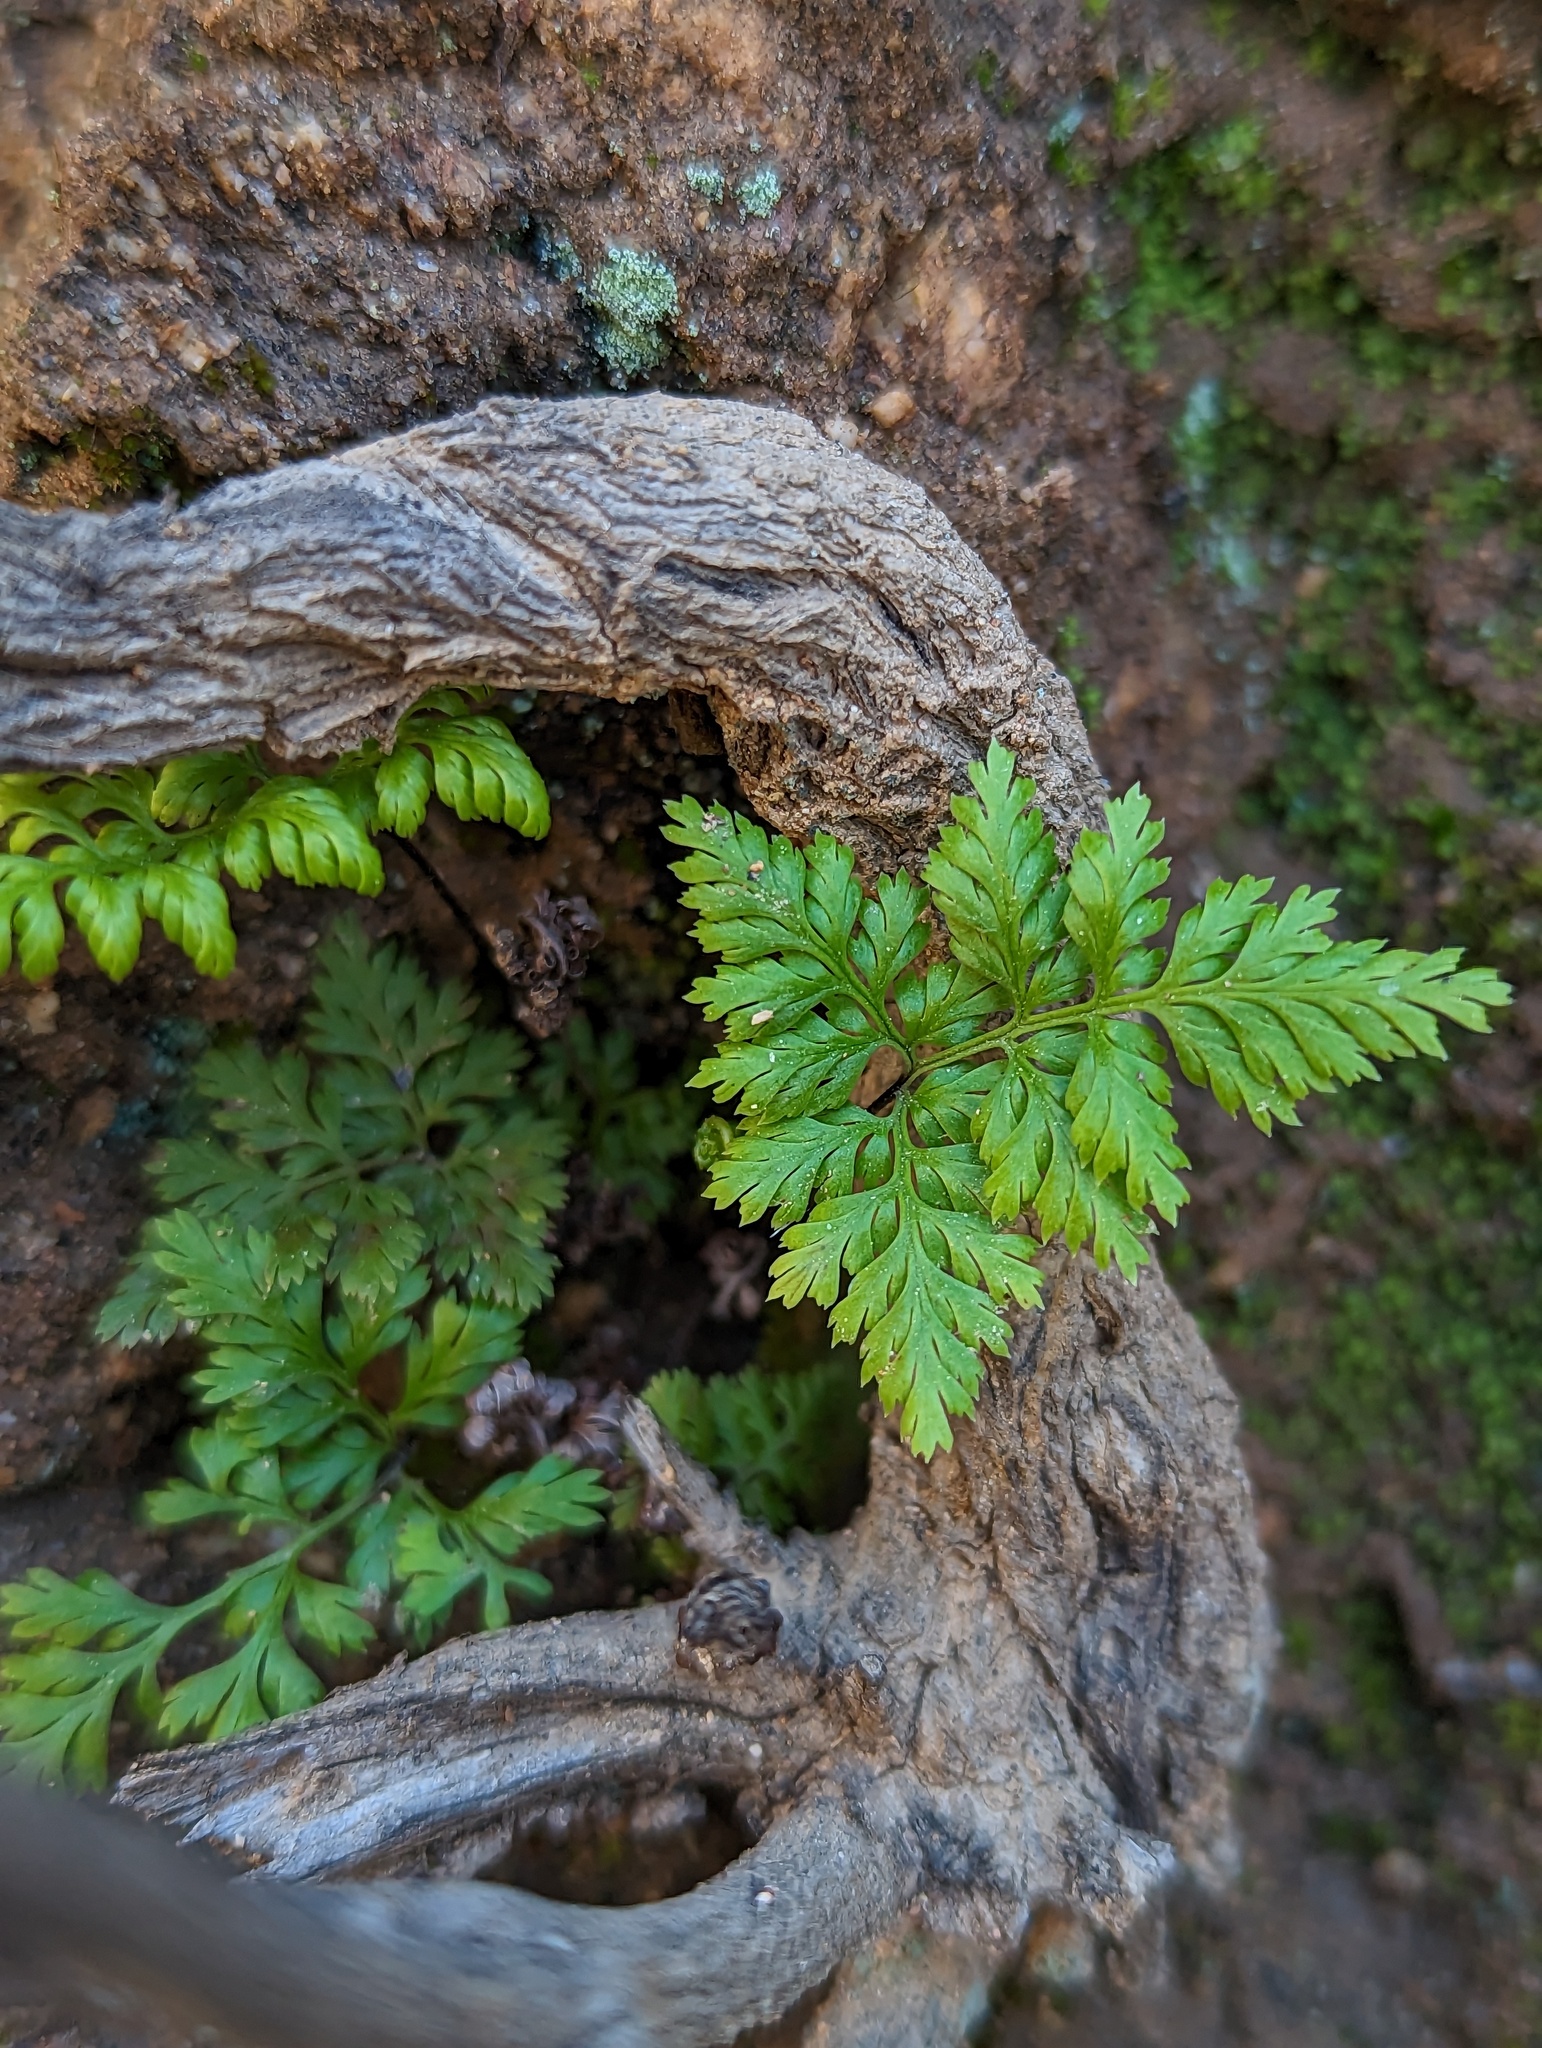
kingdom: Plantae
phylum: Tracheophyta
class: Polypodiopsida
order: Polypodiales
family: Pteridaceae
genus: Aspidotis
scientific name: Aspidotis californica
